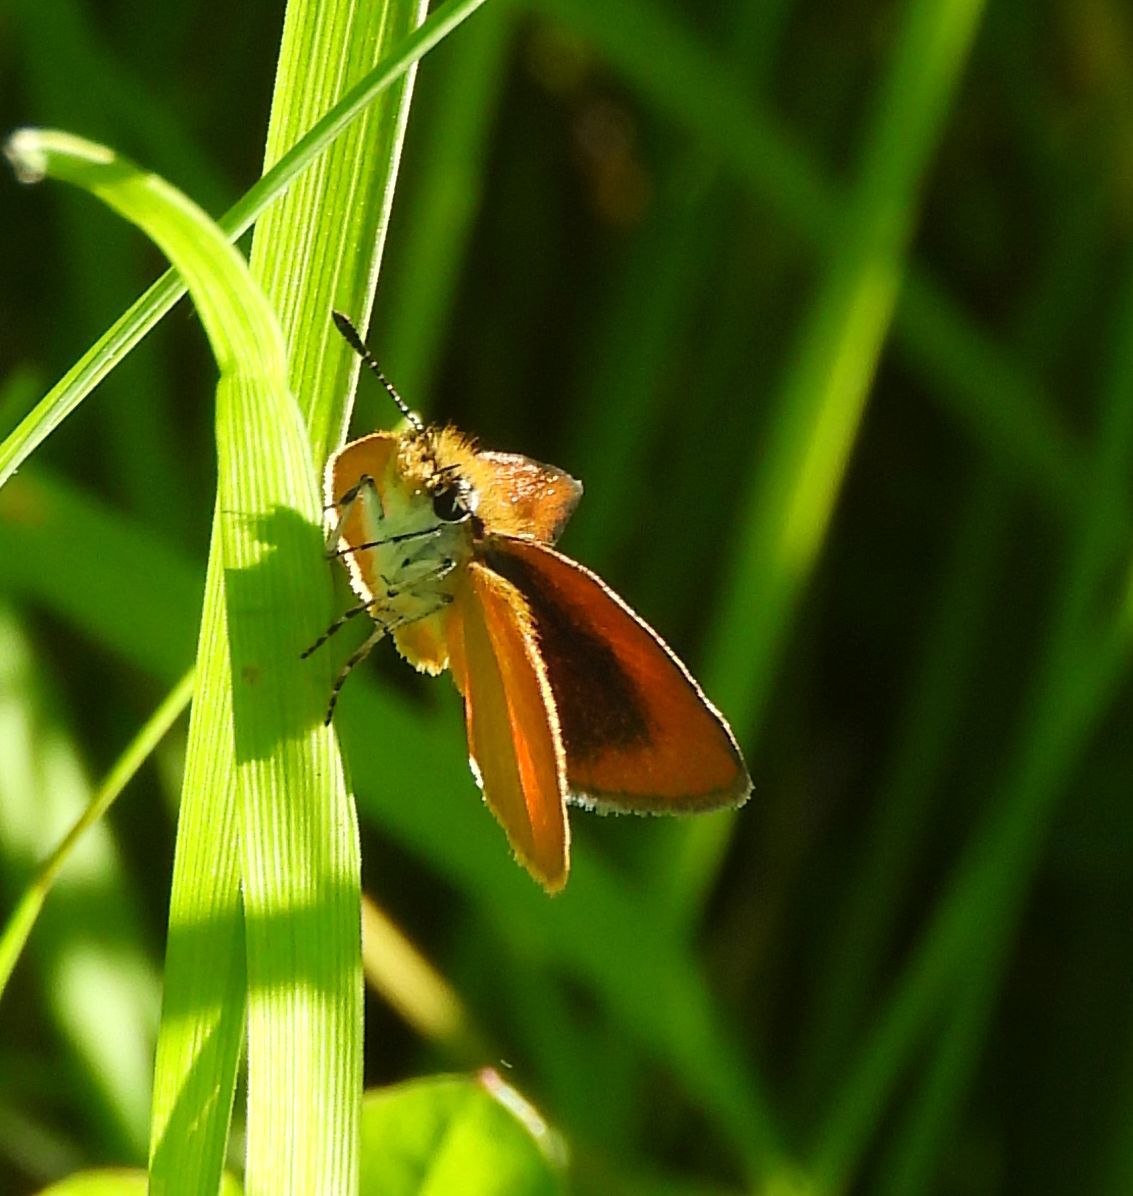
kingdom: Animalia
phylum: Arthropoda
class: Insecta
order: Lepidoptera
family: Hesperiidae
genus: Thymelicus
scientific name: Thymelicus lineola
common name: Essex skipper
